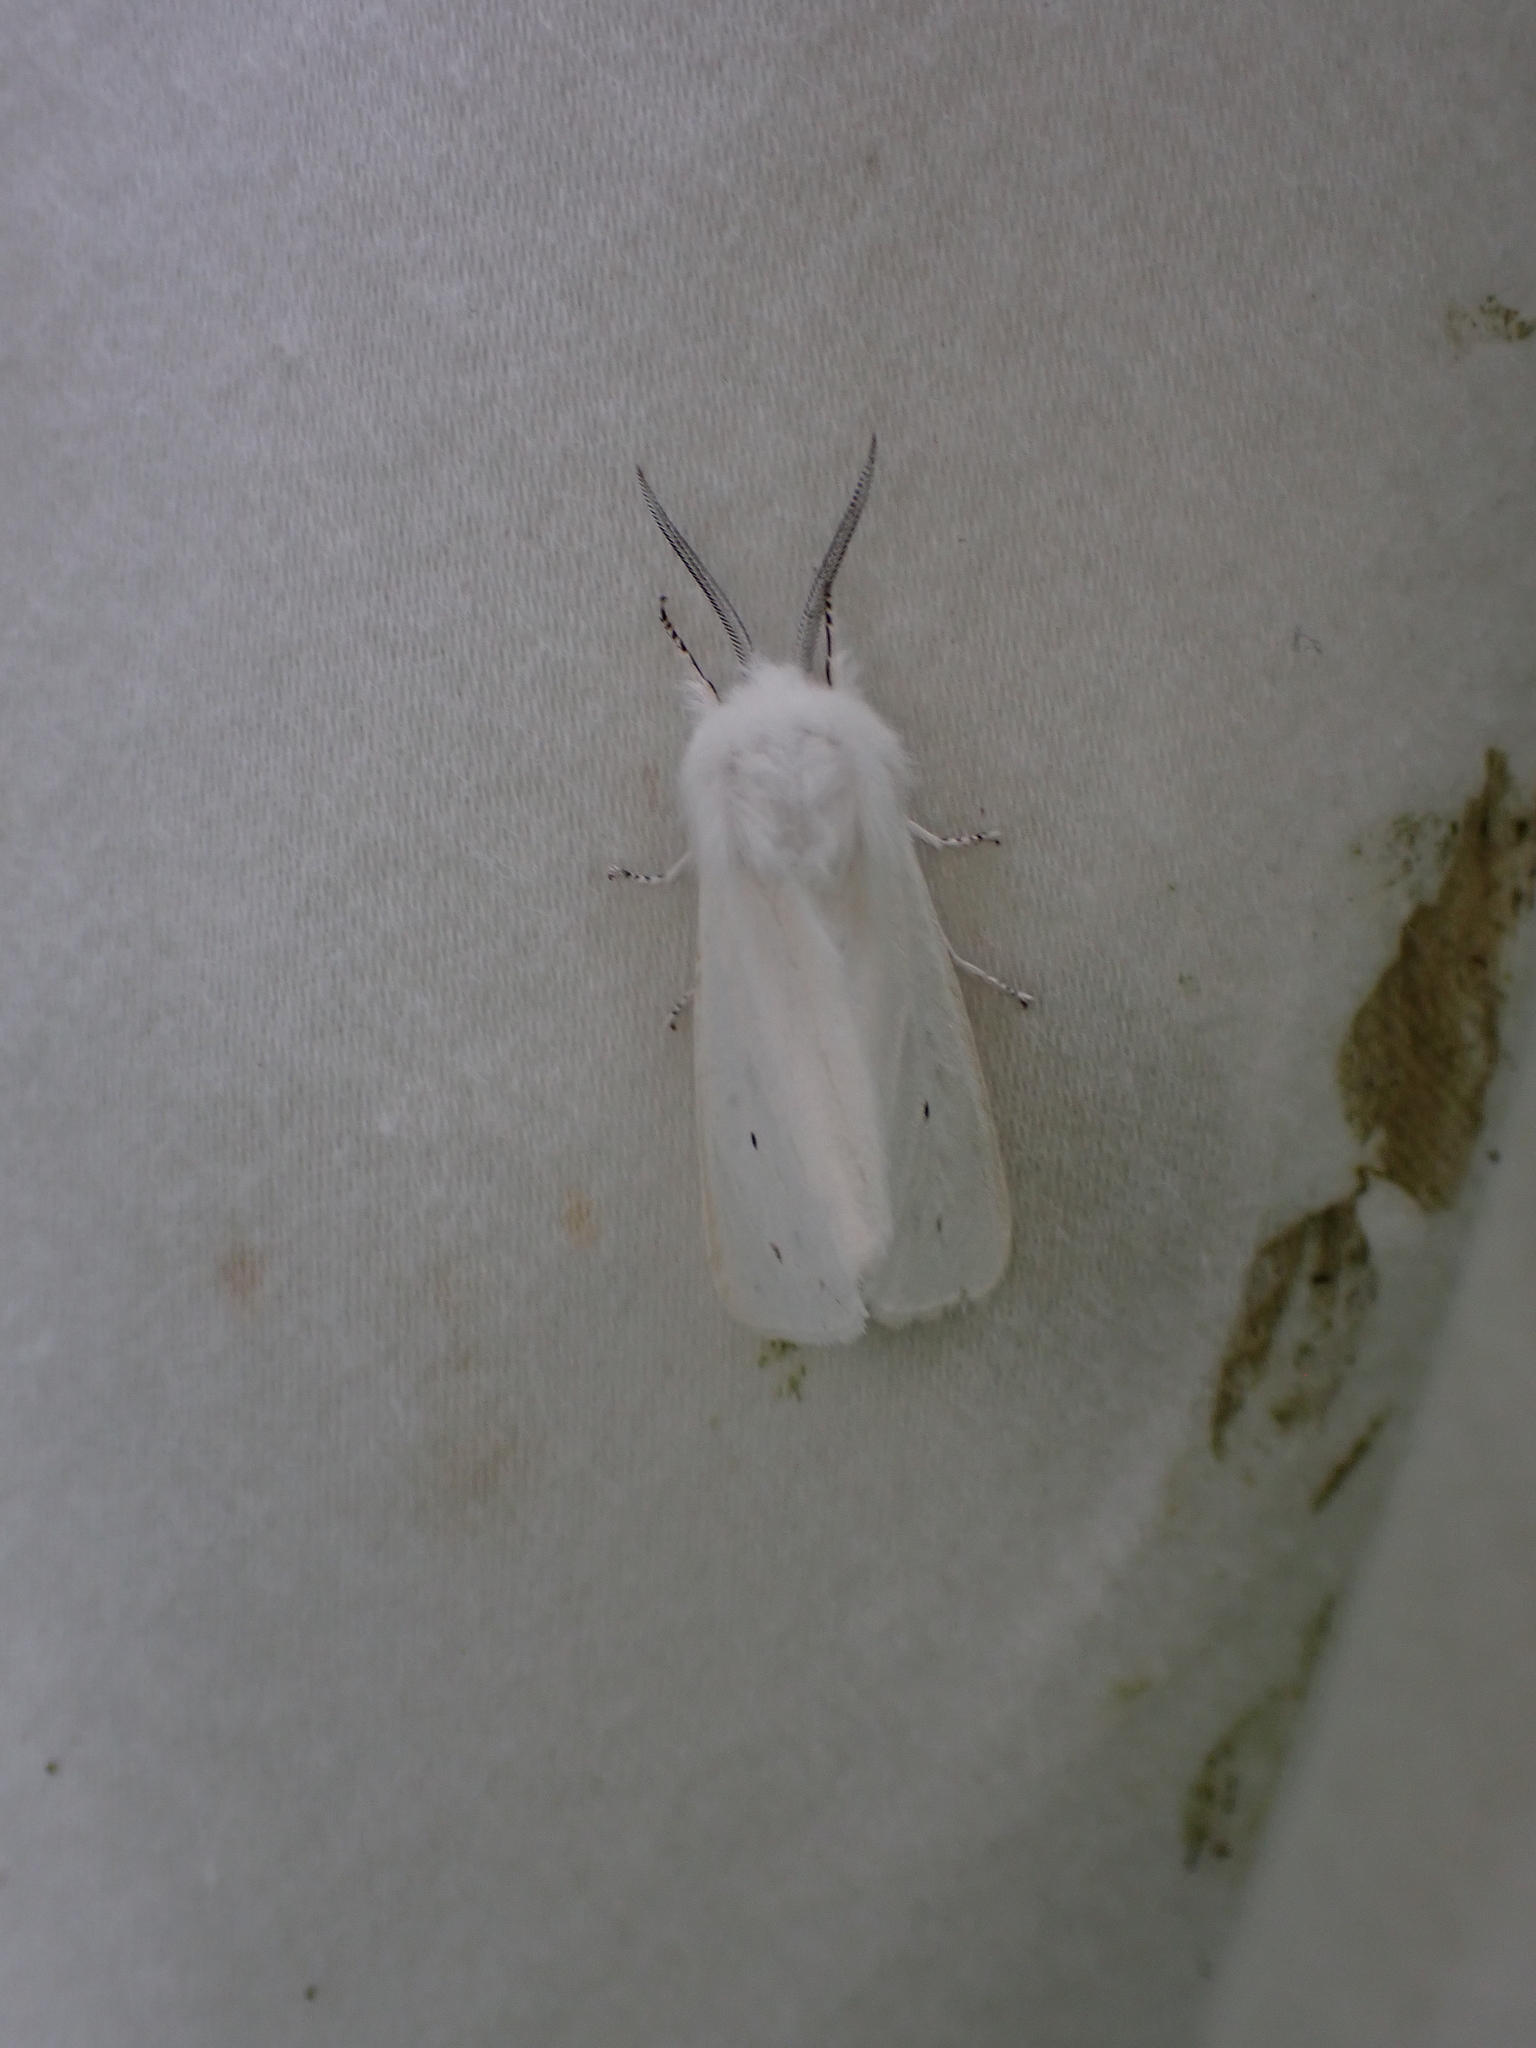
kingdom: Animalia
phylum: Arthropoda
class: Insecta
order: Lepidoptera
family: Erebidae
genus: Spilosoma
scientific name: Spilosoma virginica
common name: Virginia tiger moth
